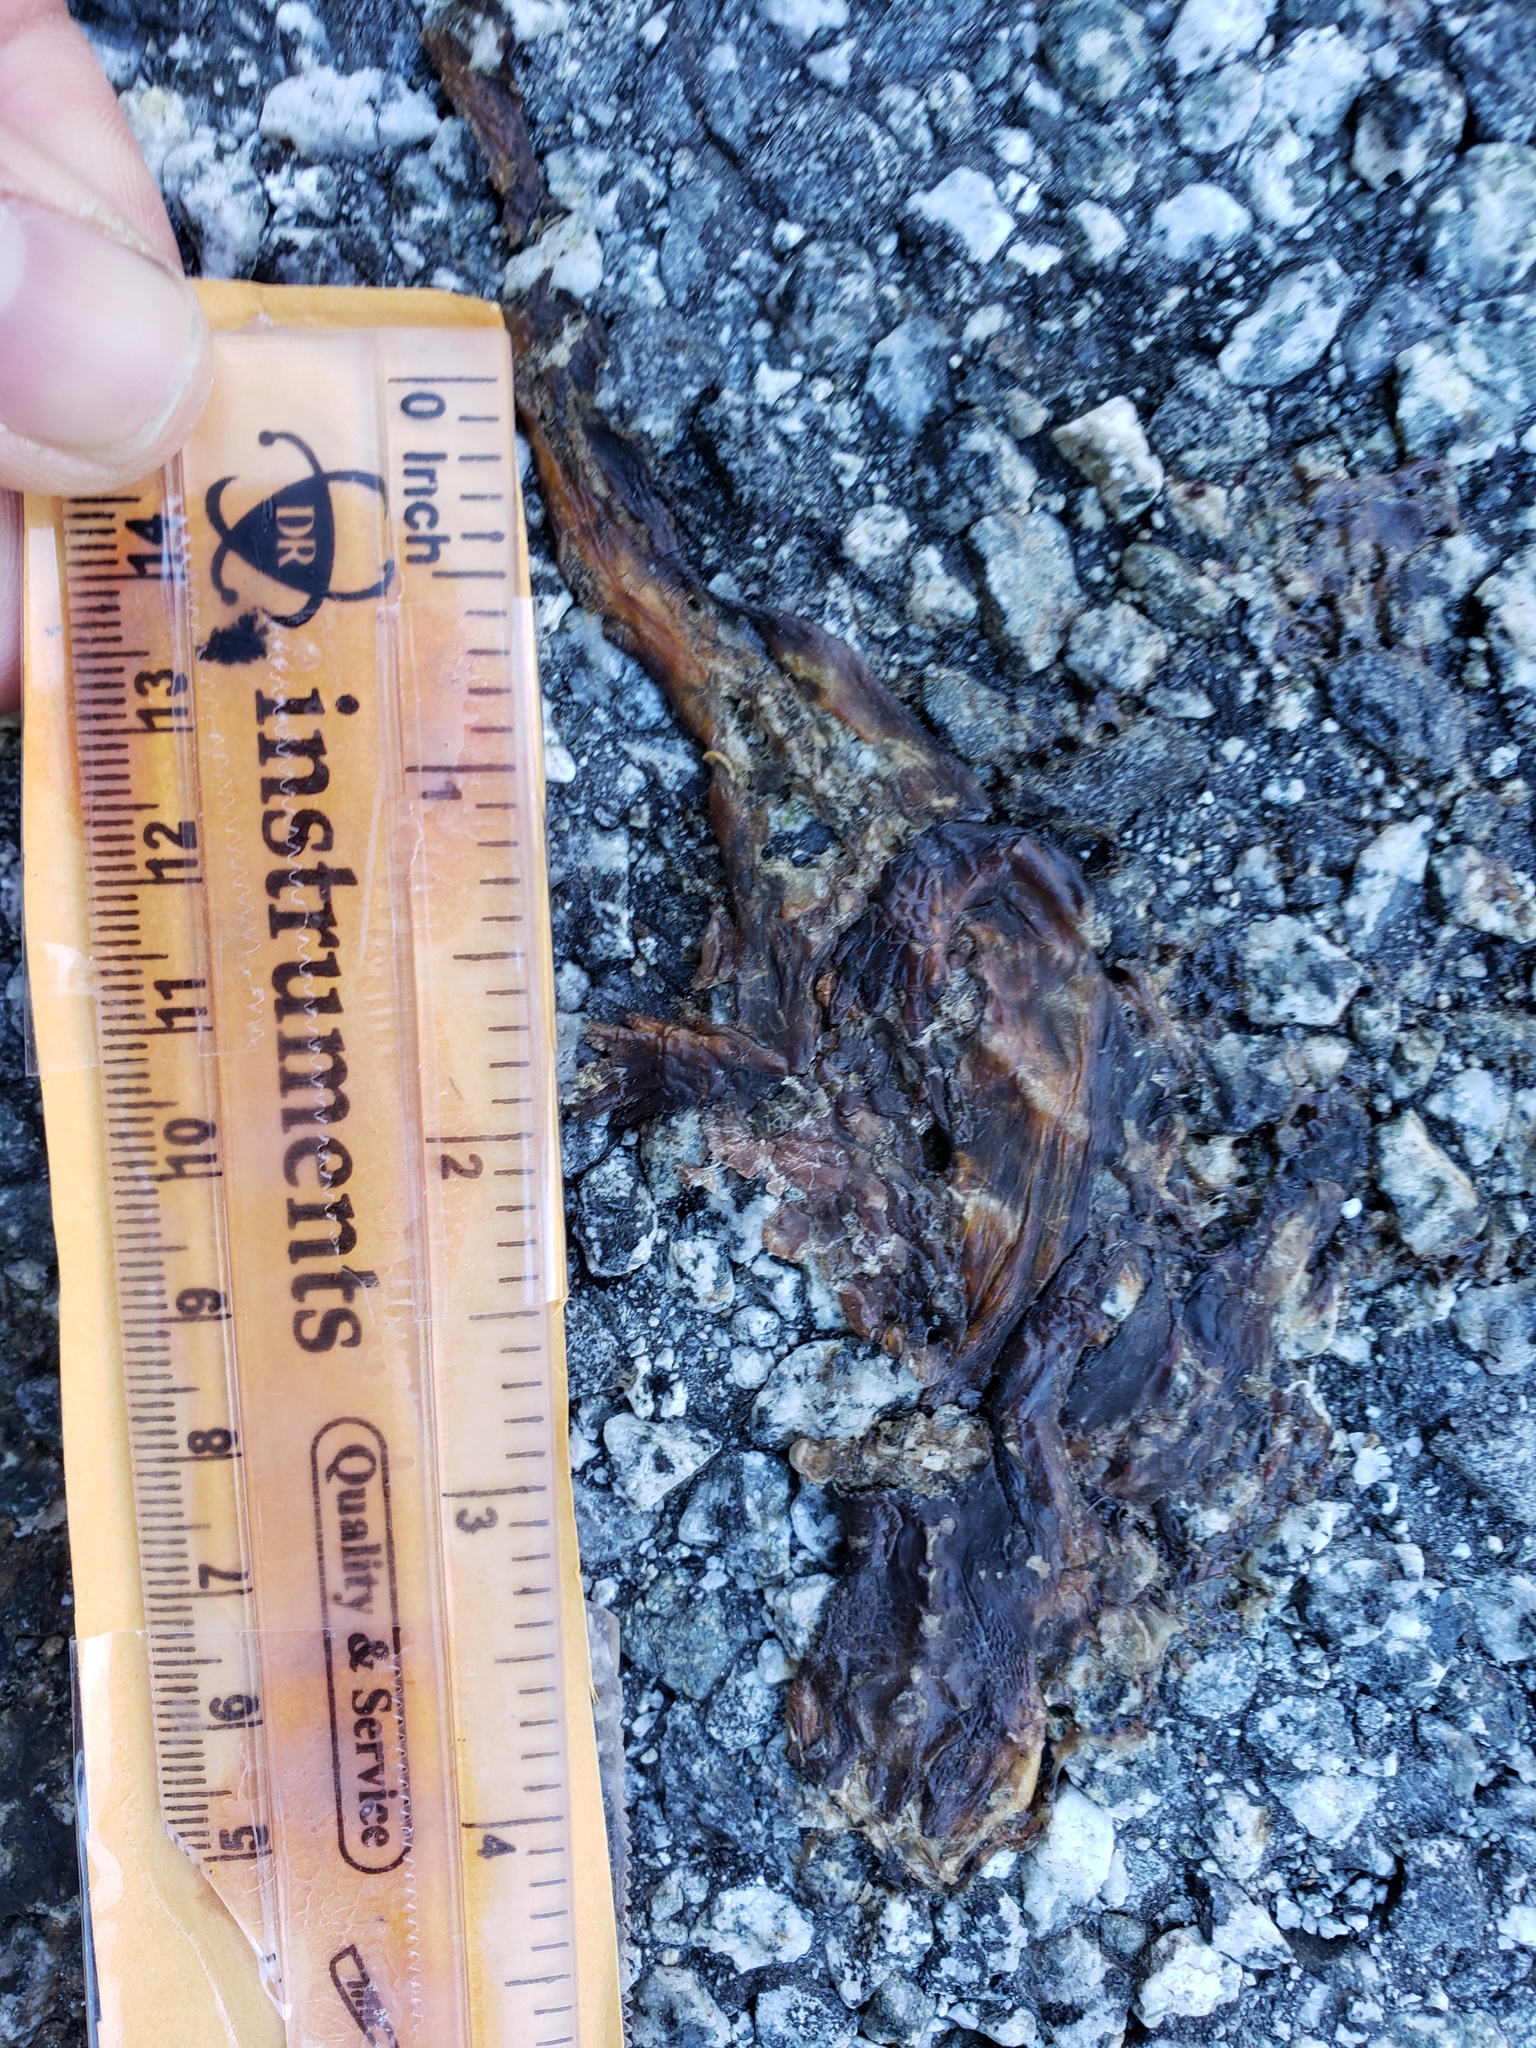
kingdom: Animalia
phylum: Chordata
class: Amphibia
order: Caudata
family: Salamandridae
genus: Taricha
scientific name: Taricha
